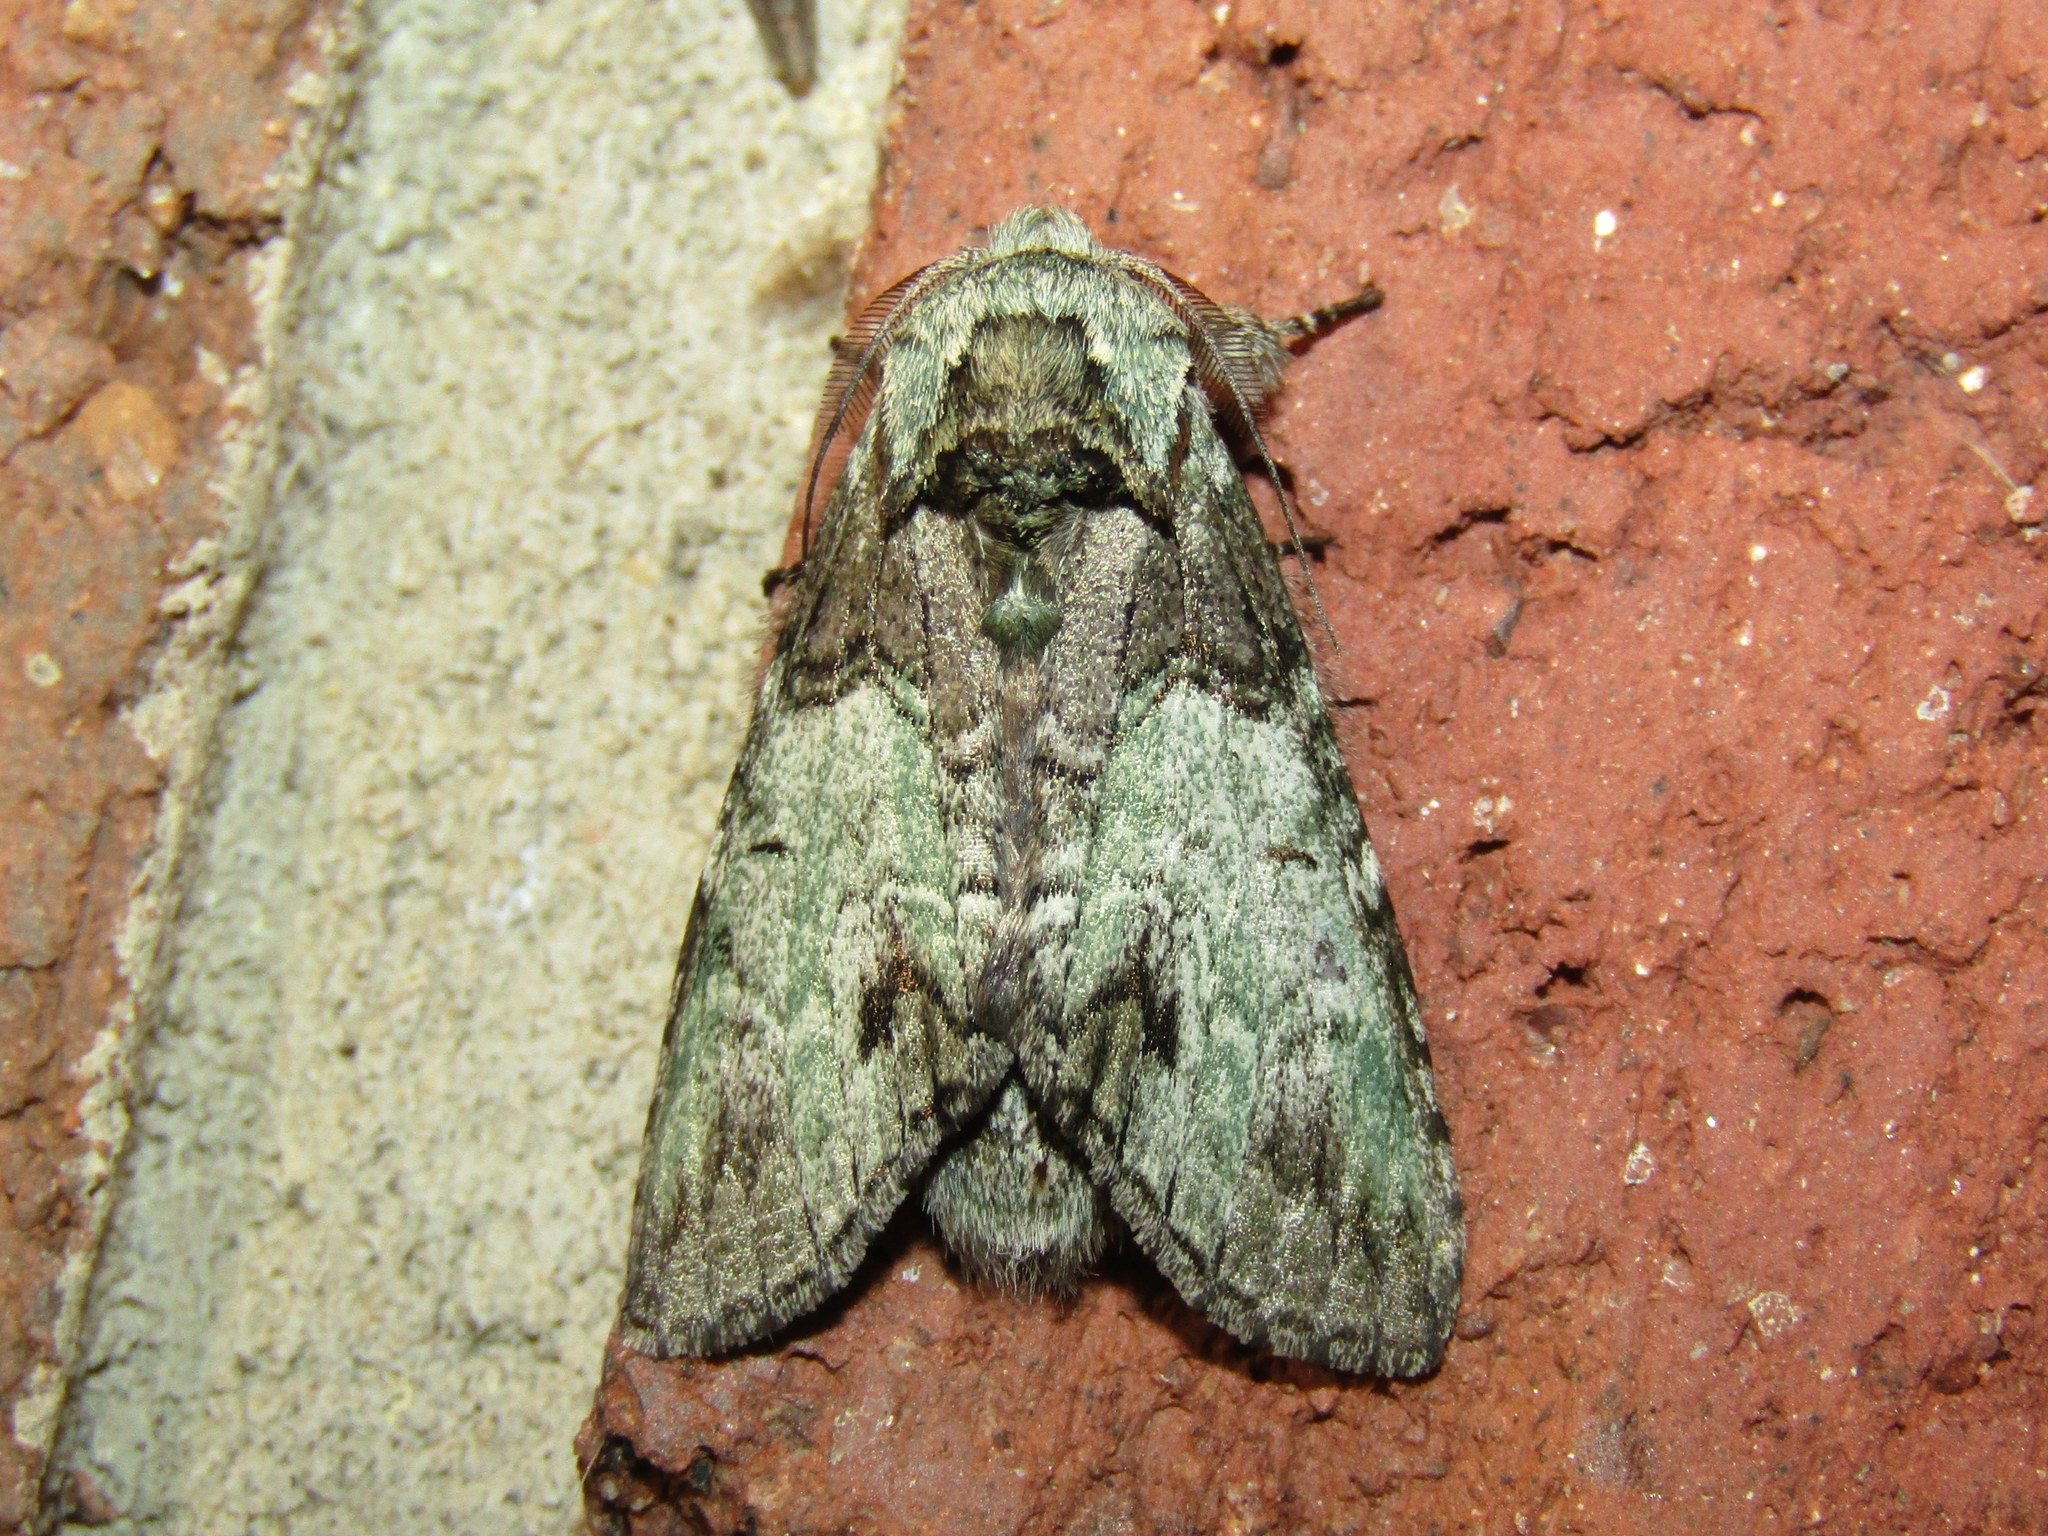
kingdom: Animalia
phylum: Arthropoda
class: Insecta
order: Lepidoptera
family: Notodontidae
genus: Macrurocampa
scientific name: Macrurocampa marthesia
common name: Mottled prominent
